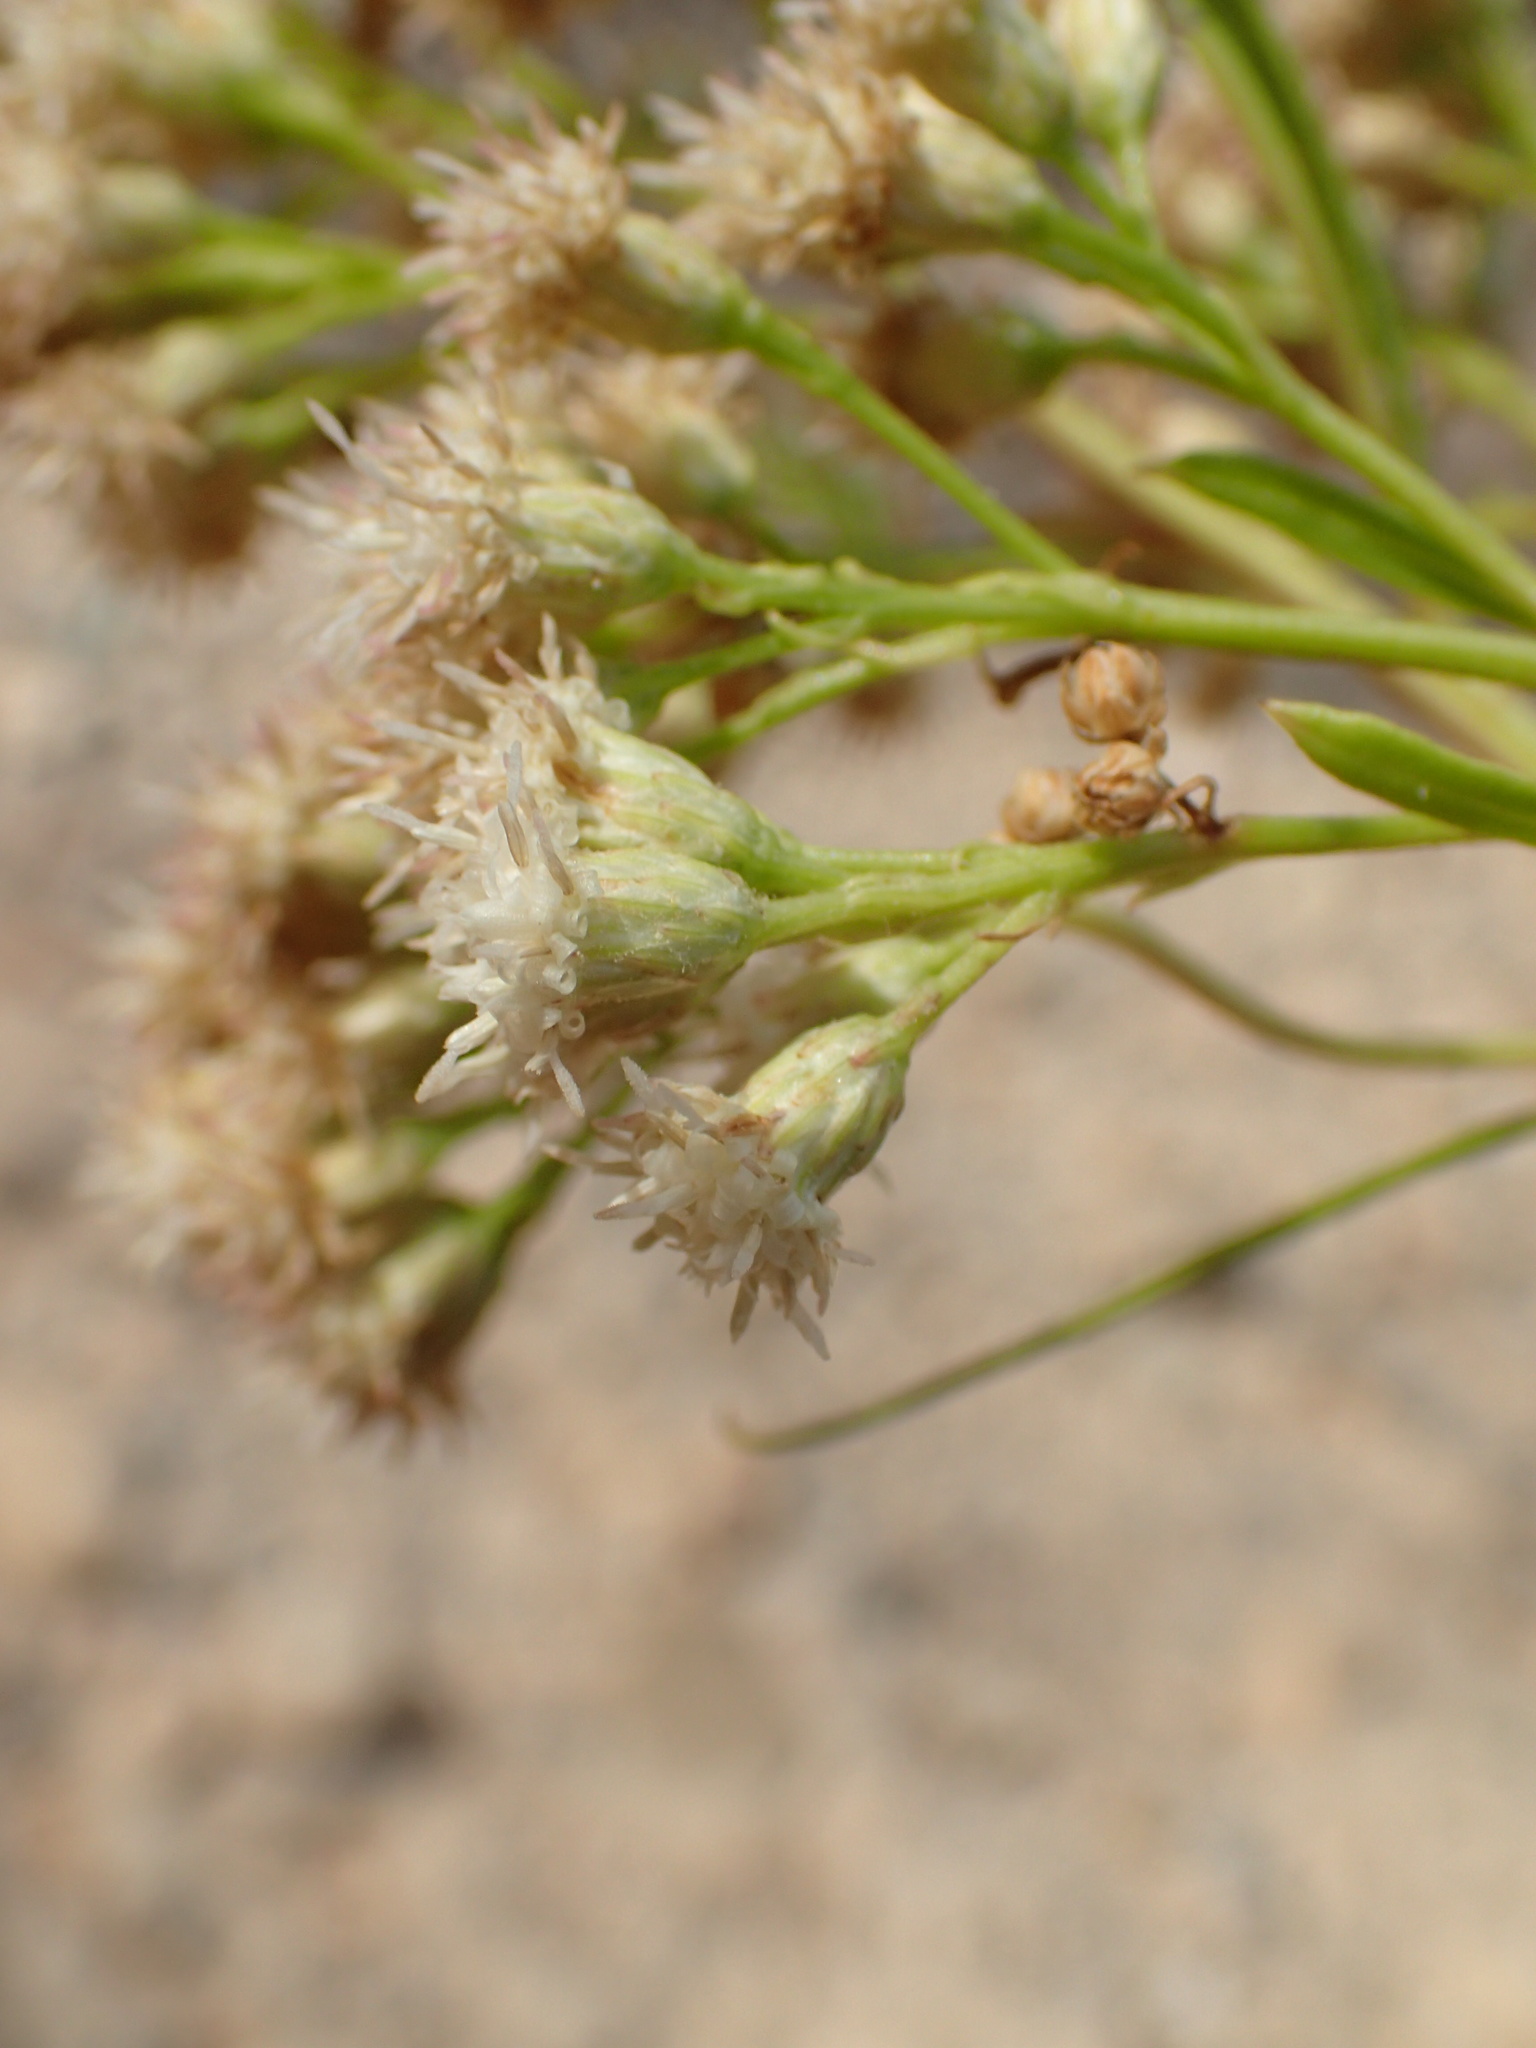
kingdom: Plantae
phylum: Tracheophyta
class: Magnoliopsida
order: Asterales
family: Asteraceae
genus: Baccharis
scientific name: Baccharis salicifolia
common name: Sticky baccharis
